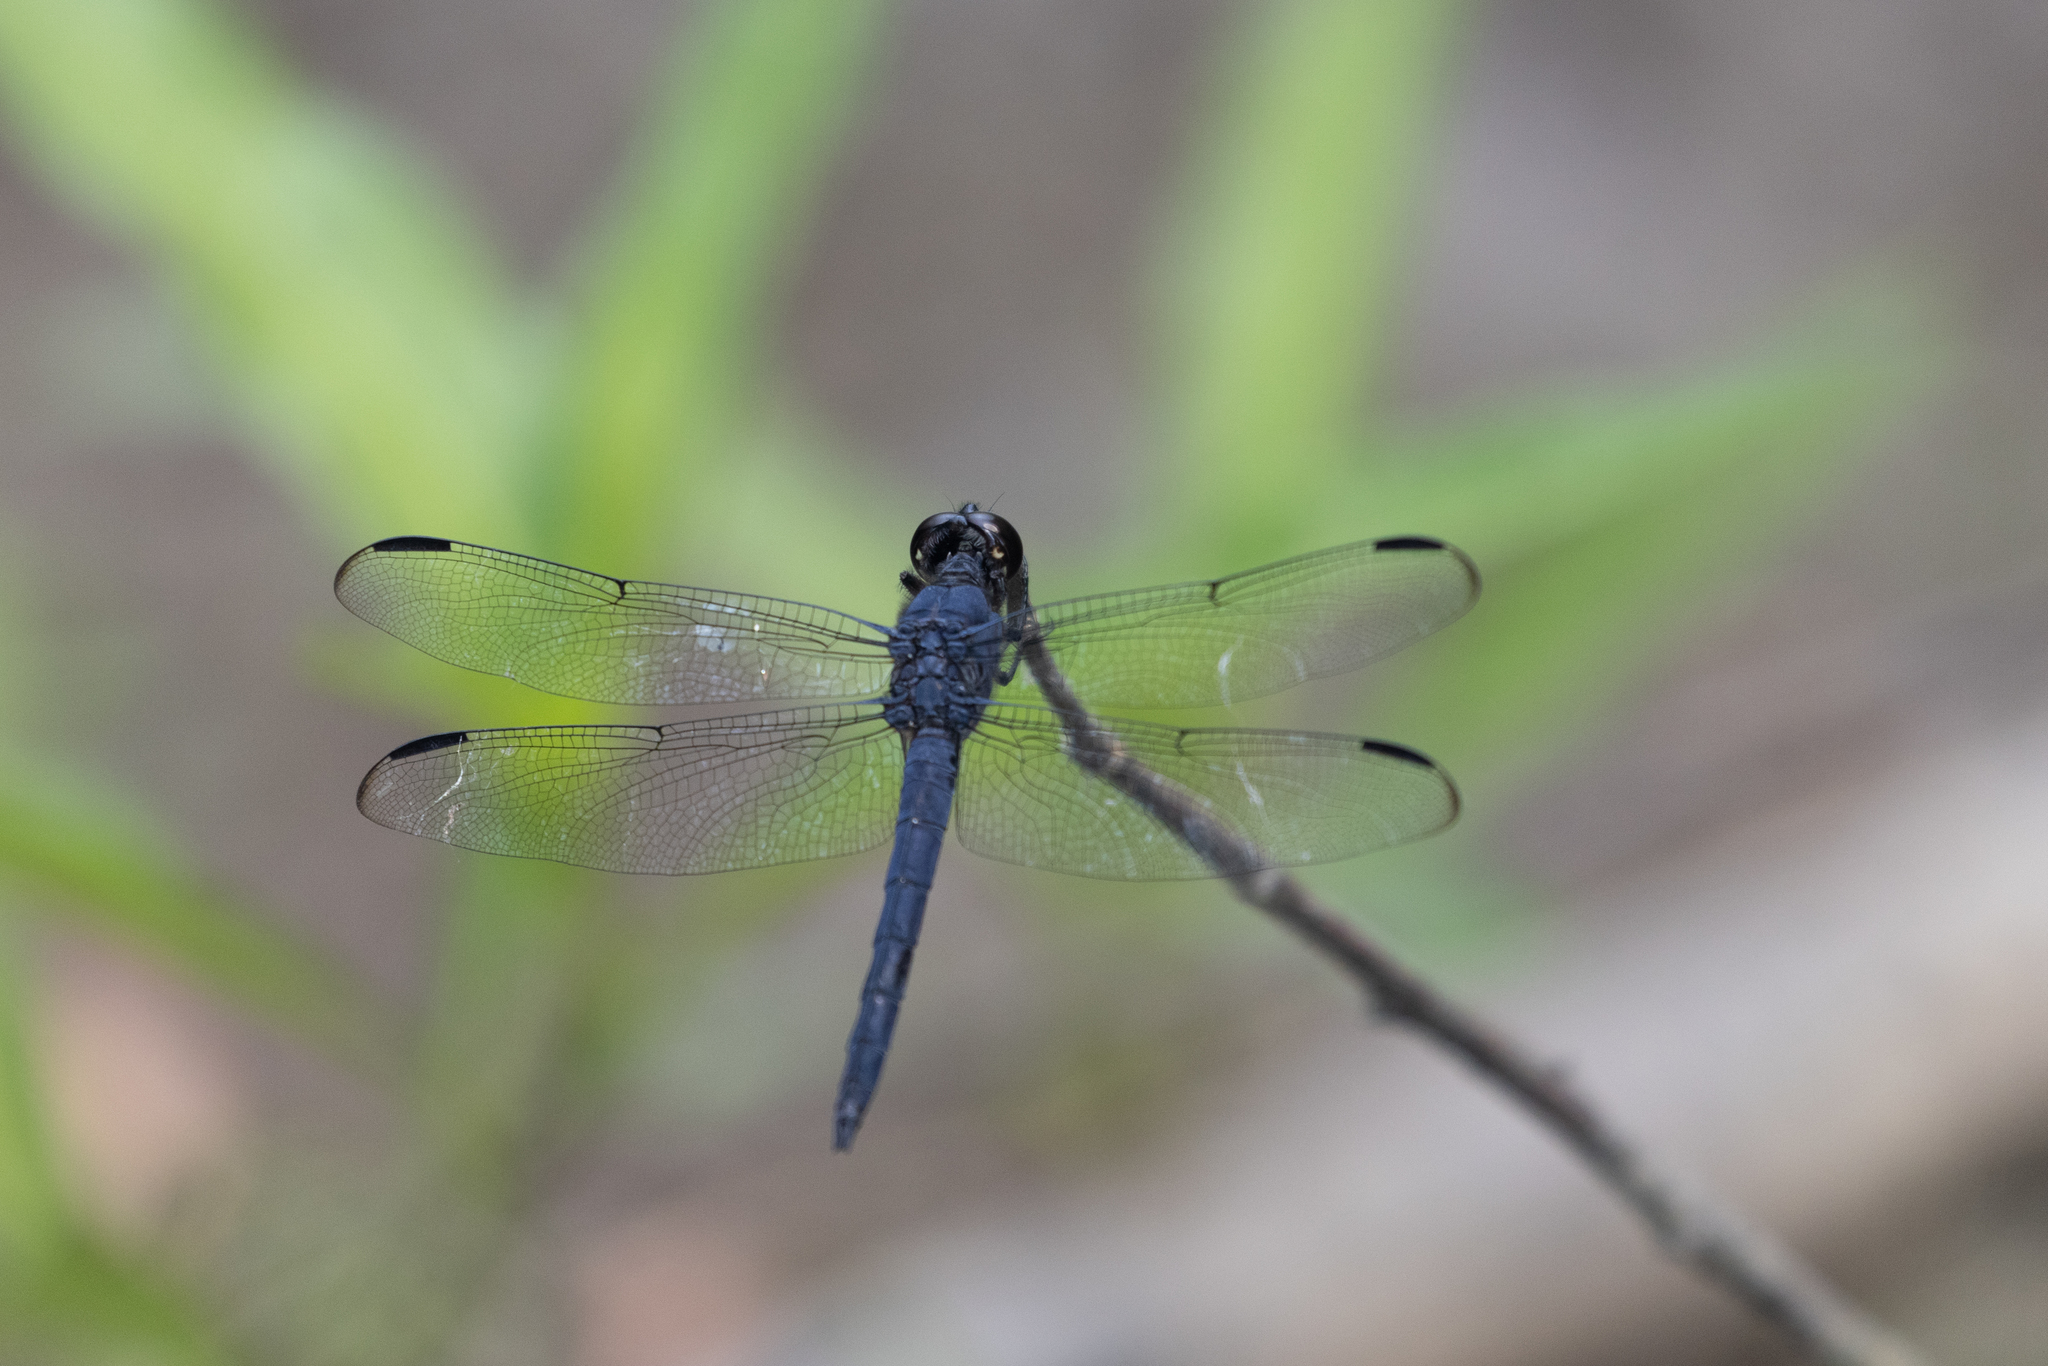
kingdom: Animalia
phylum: Arthropoda
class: Insecta
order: Odonata
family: Libellulidae
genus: Libellula
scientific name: Libellula incesta
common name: Slaty skimmer
